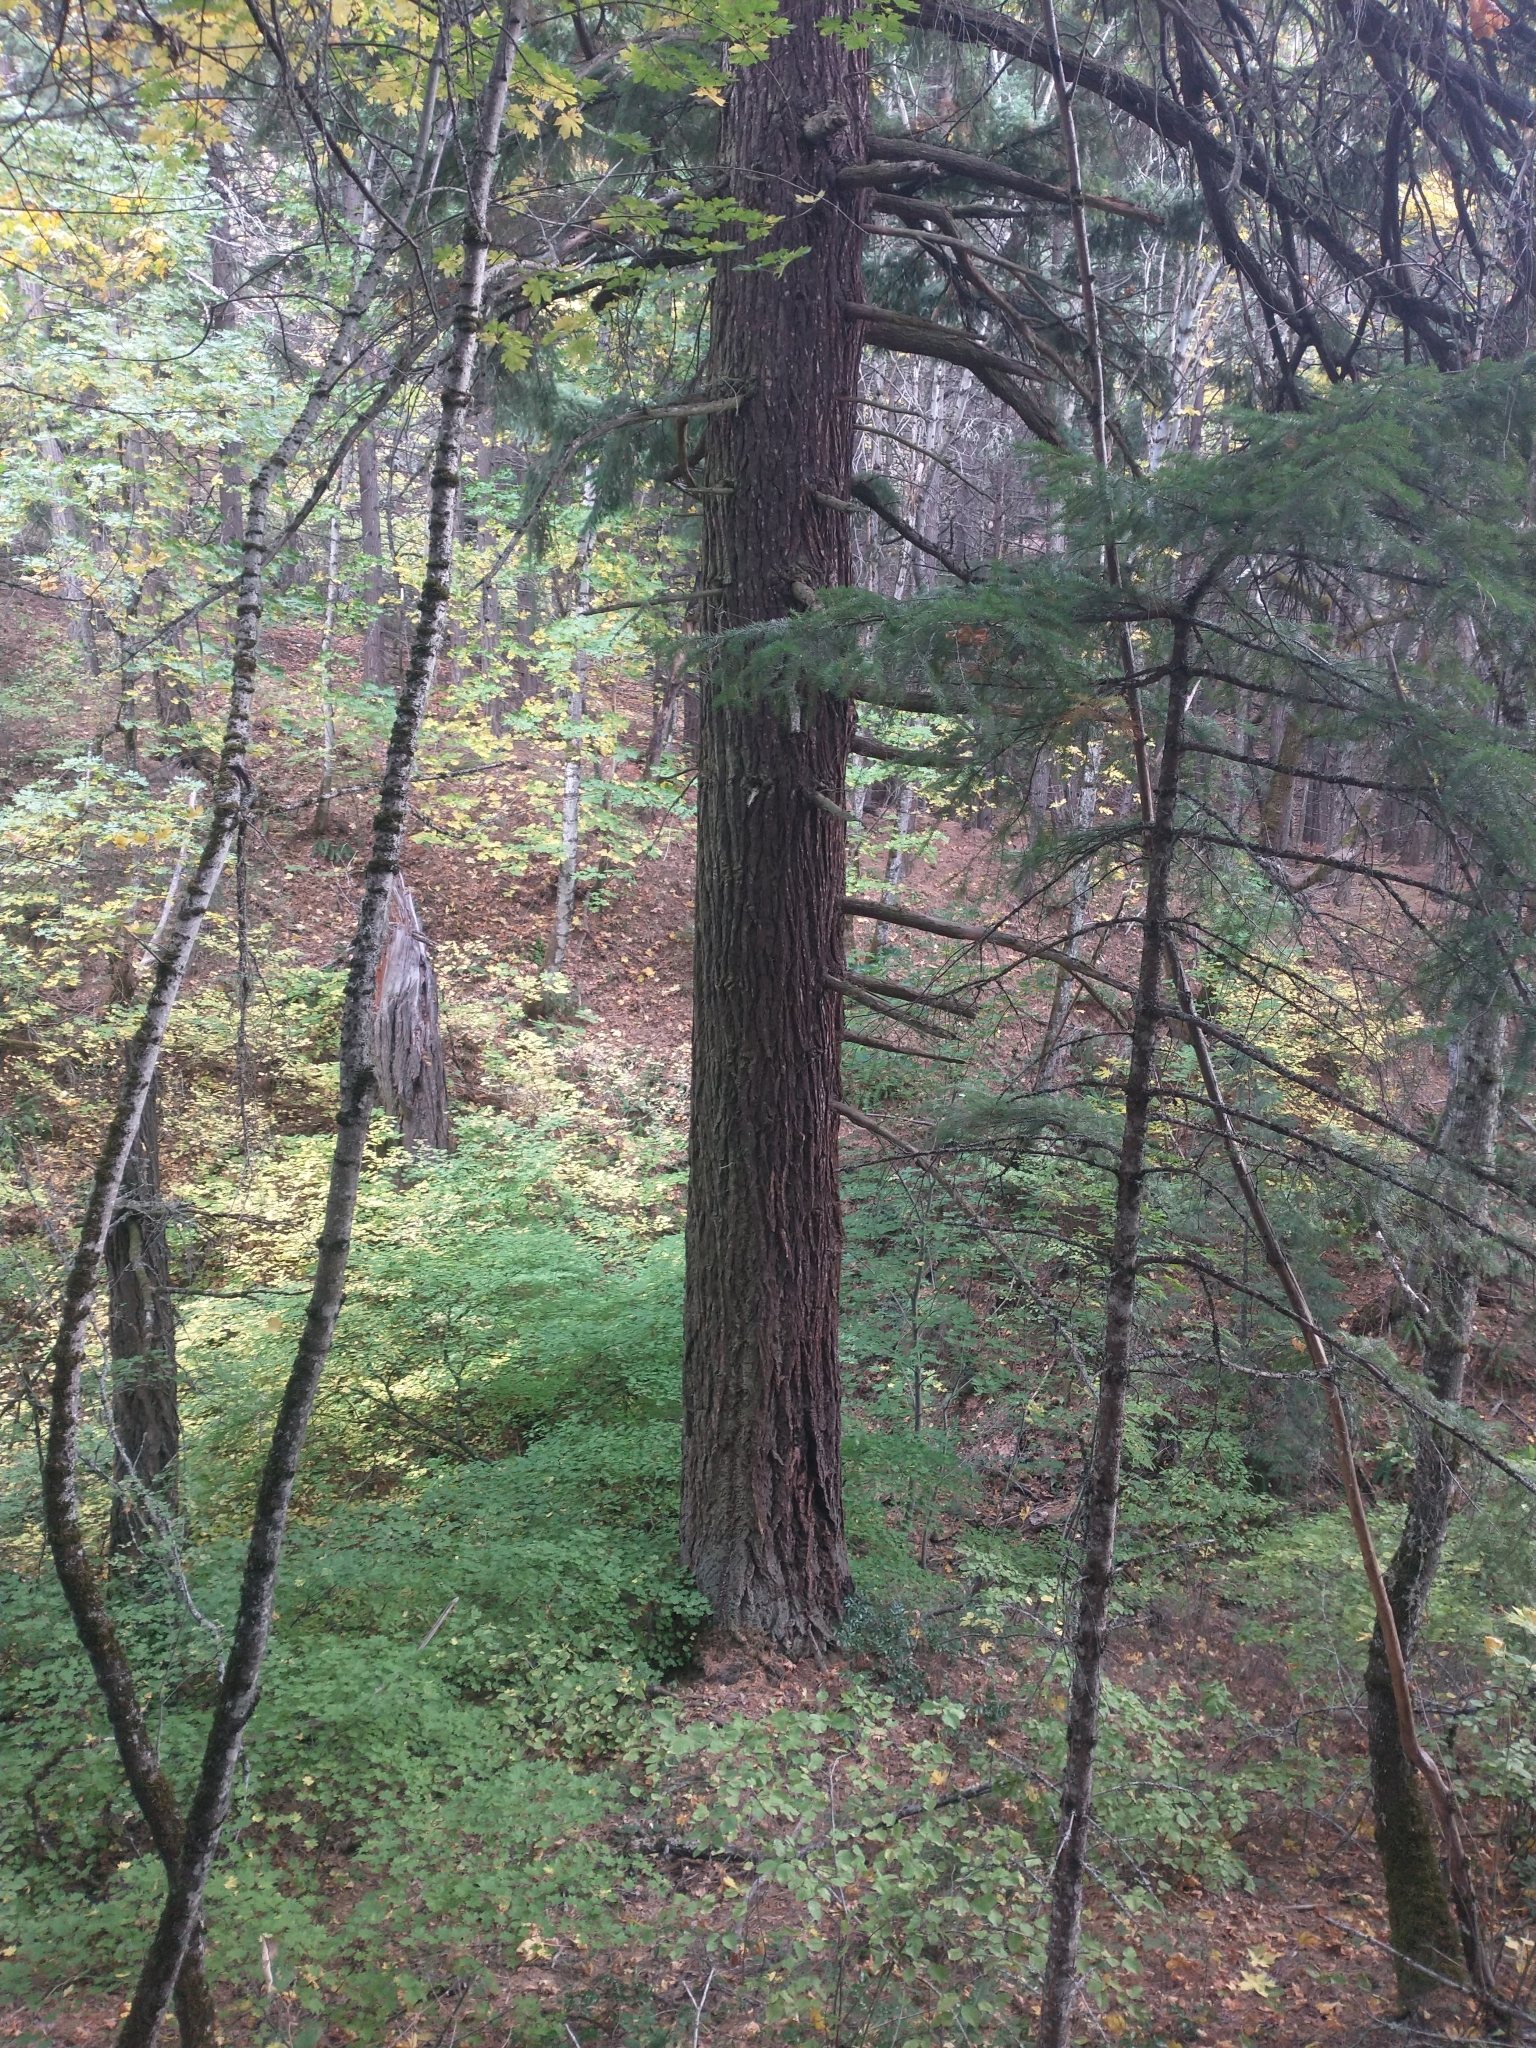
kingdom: Plantae
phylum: Tracheophyta
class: Pinopsida
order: Pinales
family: Pinaceae
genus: Pseudotsuga
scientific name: Pseudotsuga menziesii
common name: Douglas fir
